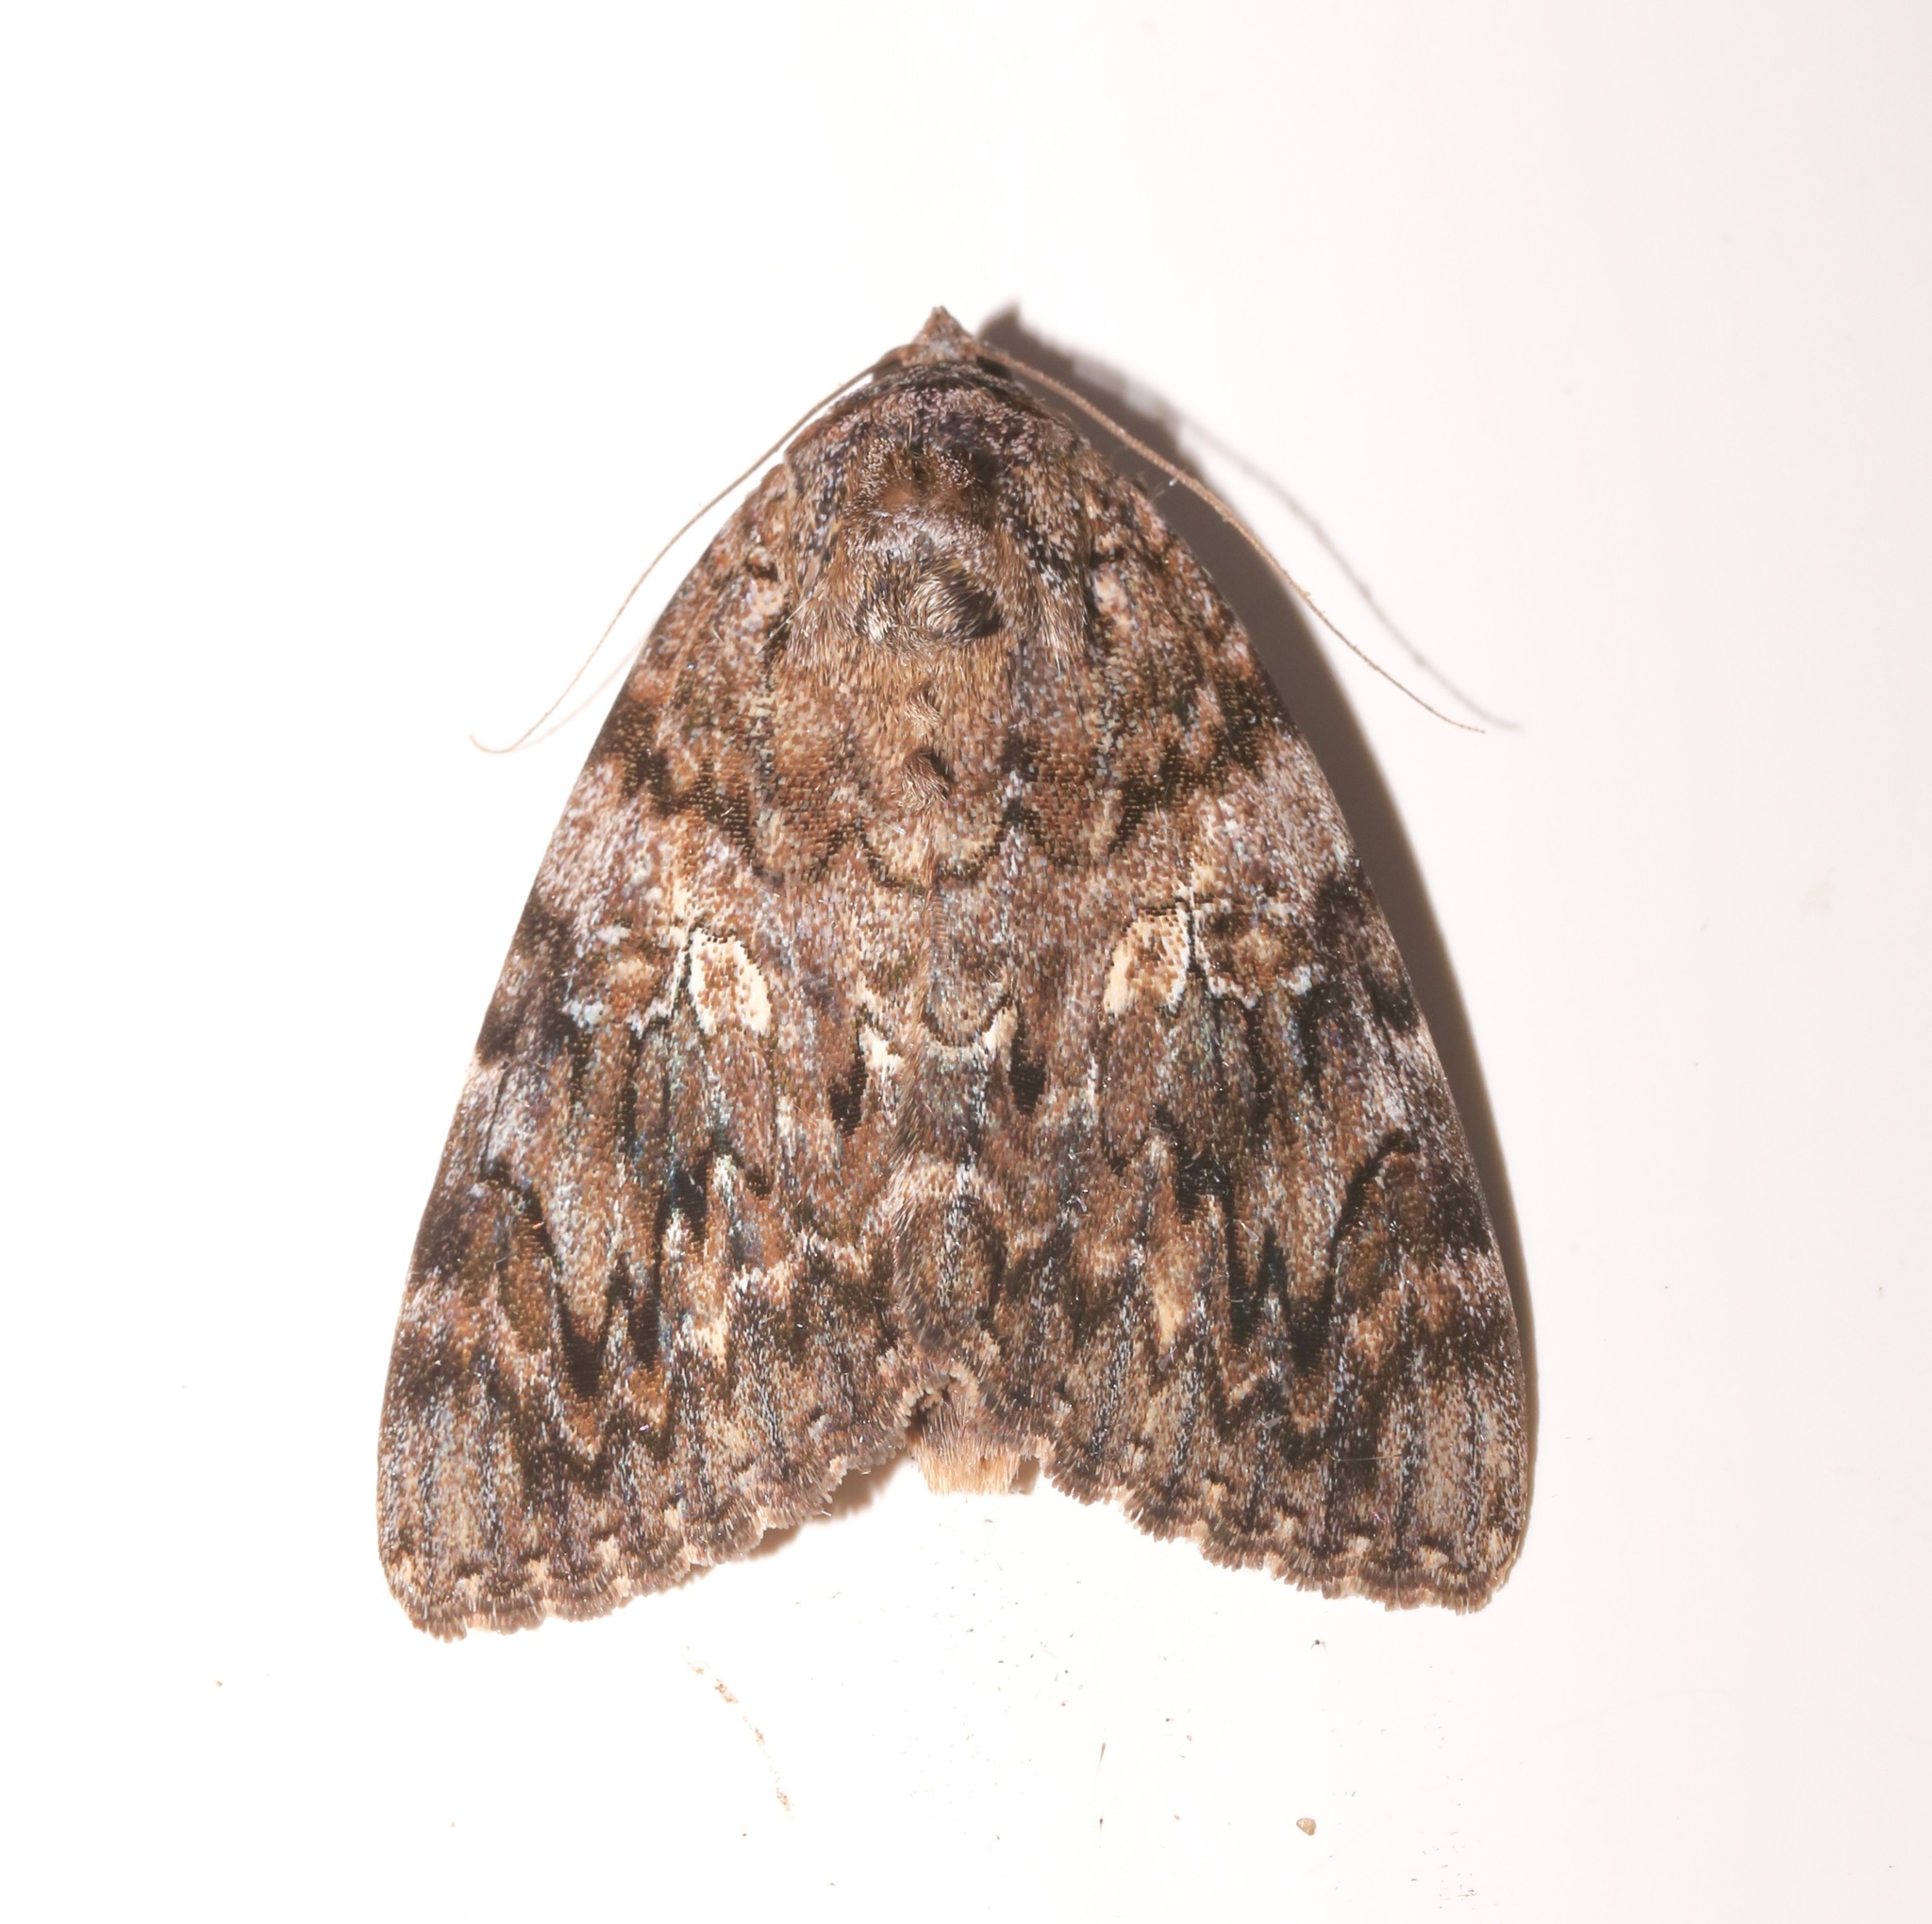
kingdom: Animalia
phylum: Arthropoda
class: Insecta
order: Lepidoptera
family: Erebidae
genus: Catocala
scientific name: Catocala umbrosa
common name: Umber underwing
